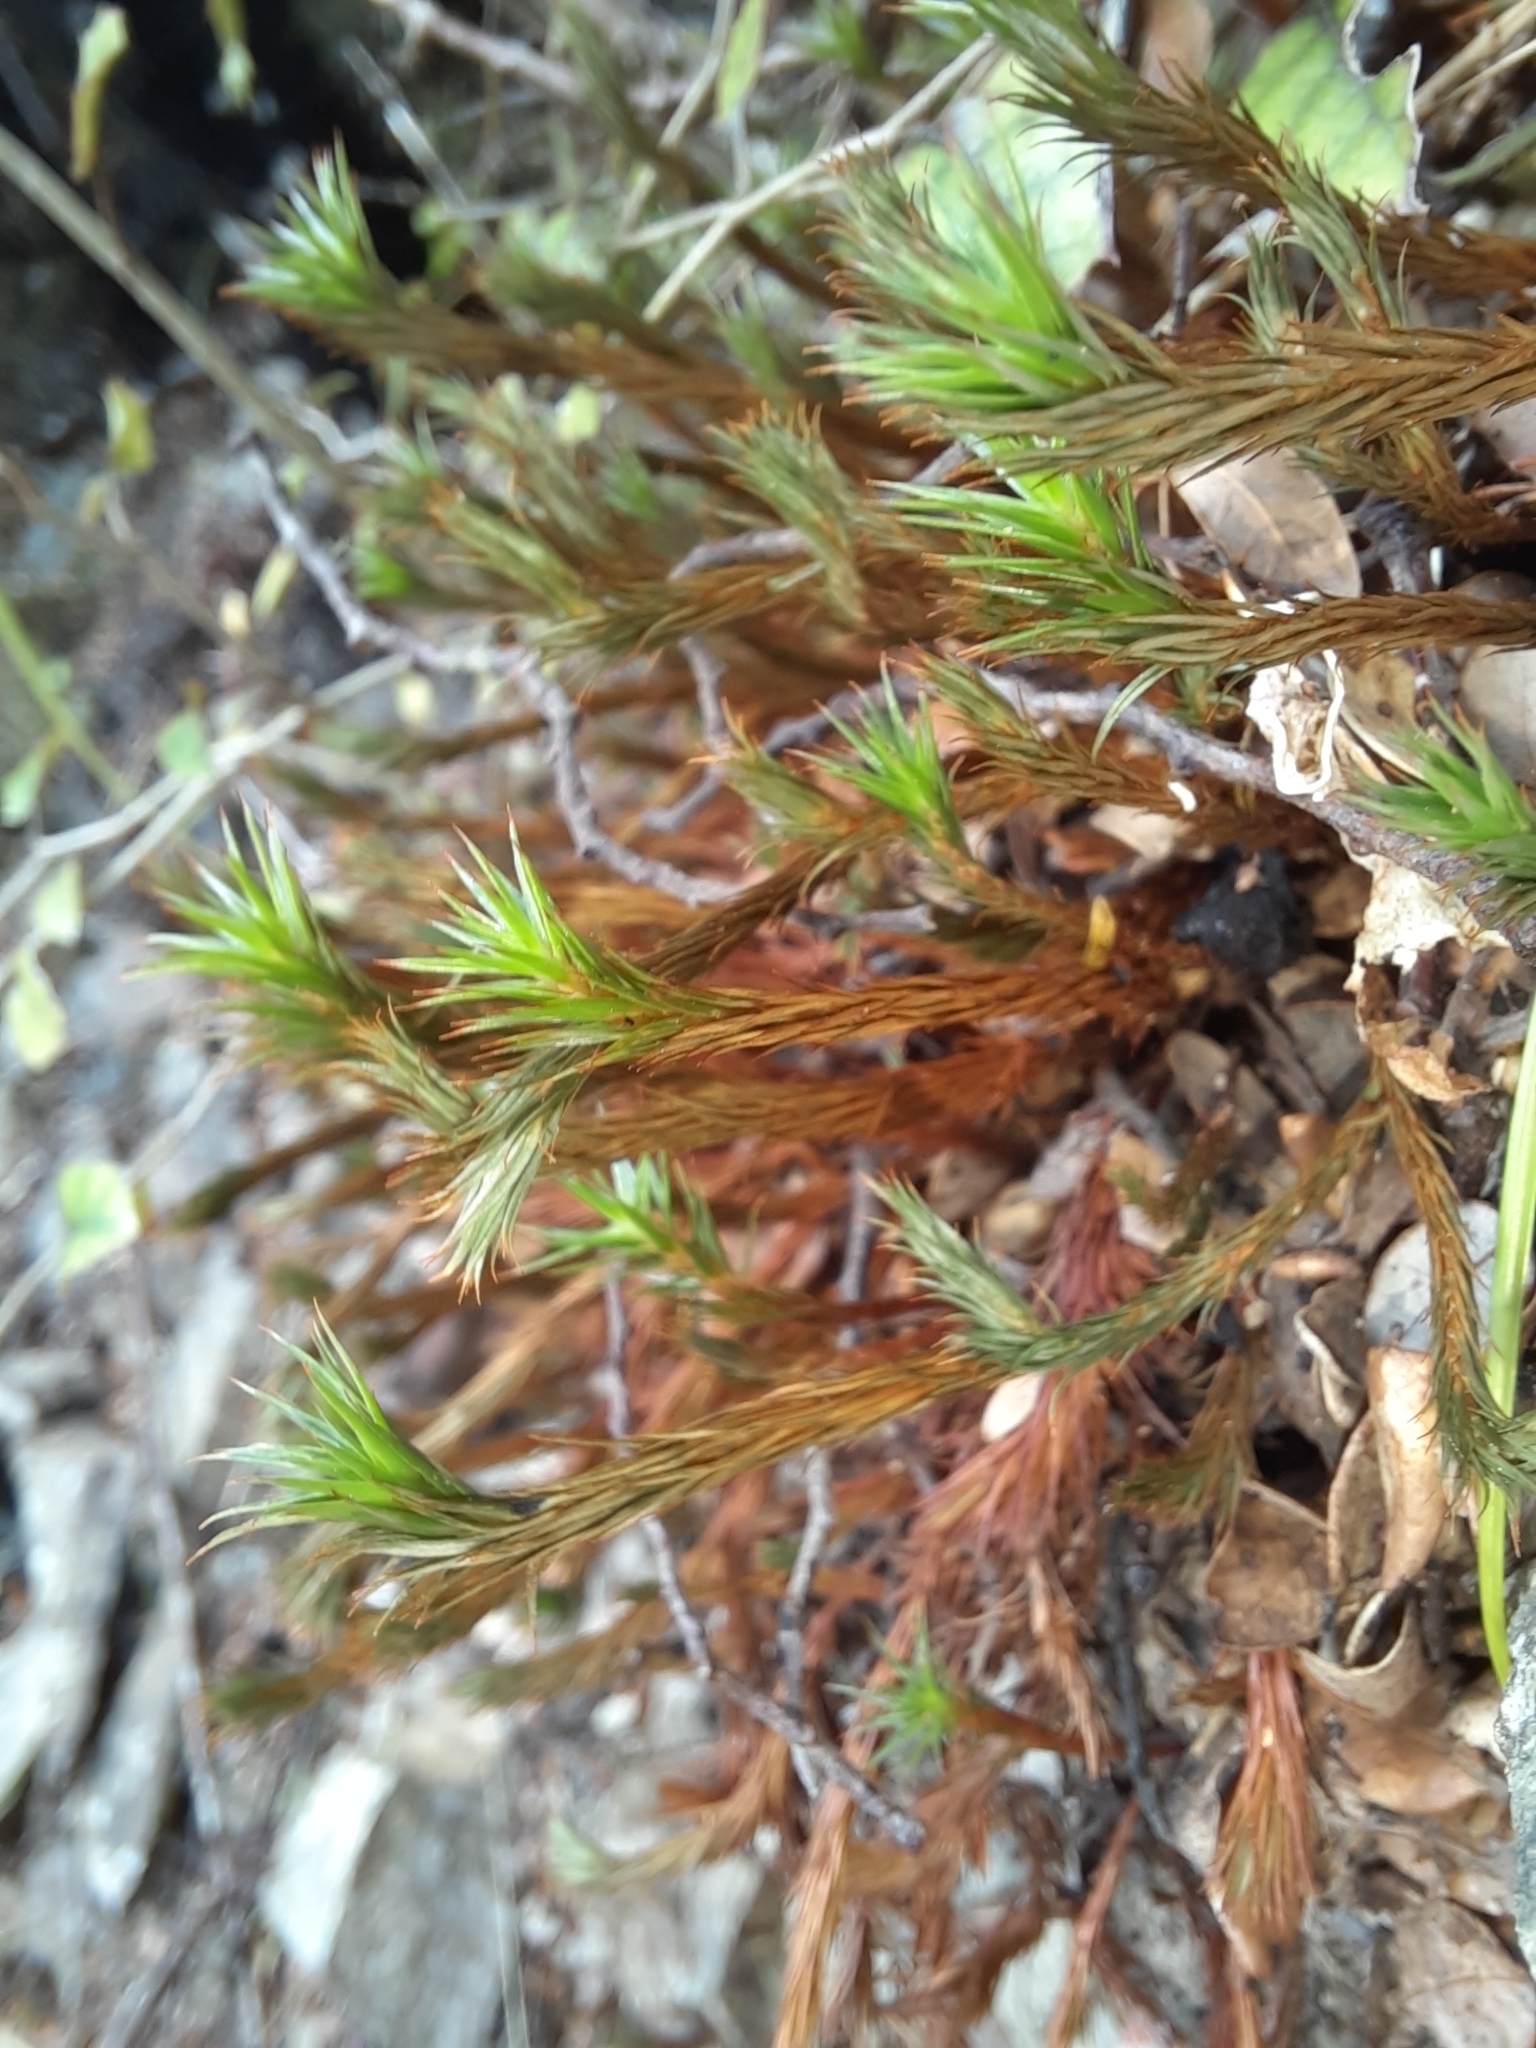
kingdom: Plantae
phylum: Bryophyta
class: Polytrichopsida
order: Polytrichales
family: Polytrichaceae
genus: Polytrichadelphus
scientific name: Polytrichadelphus magellanicus
